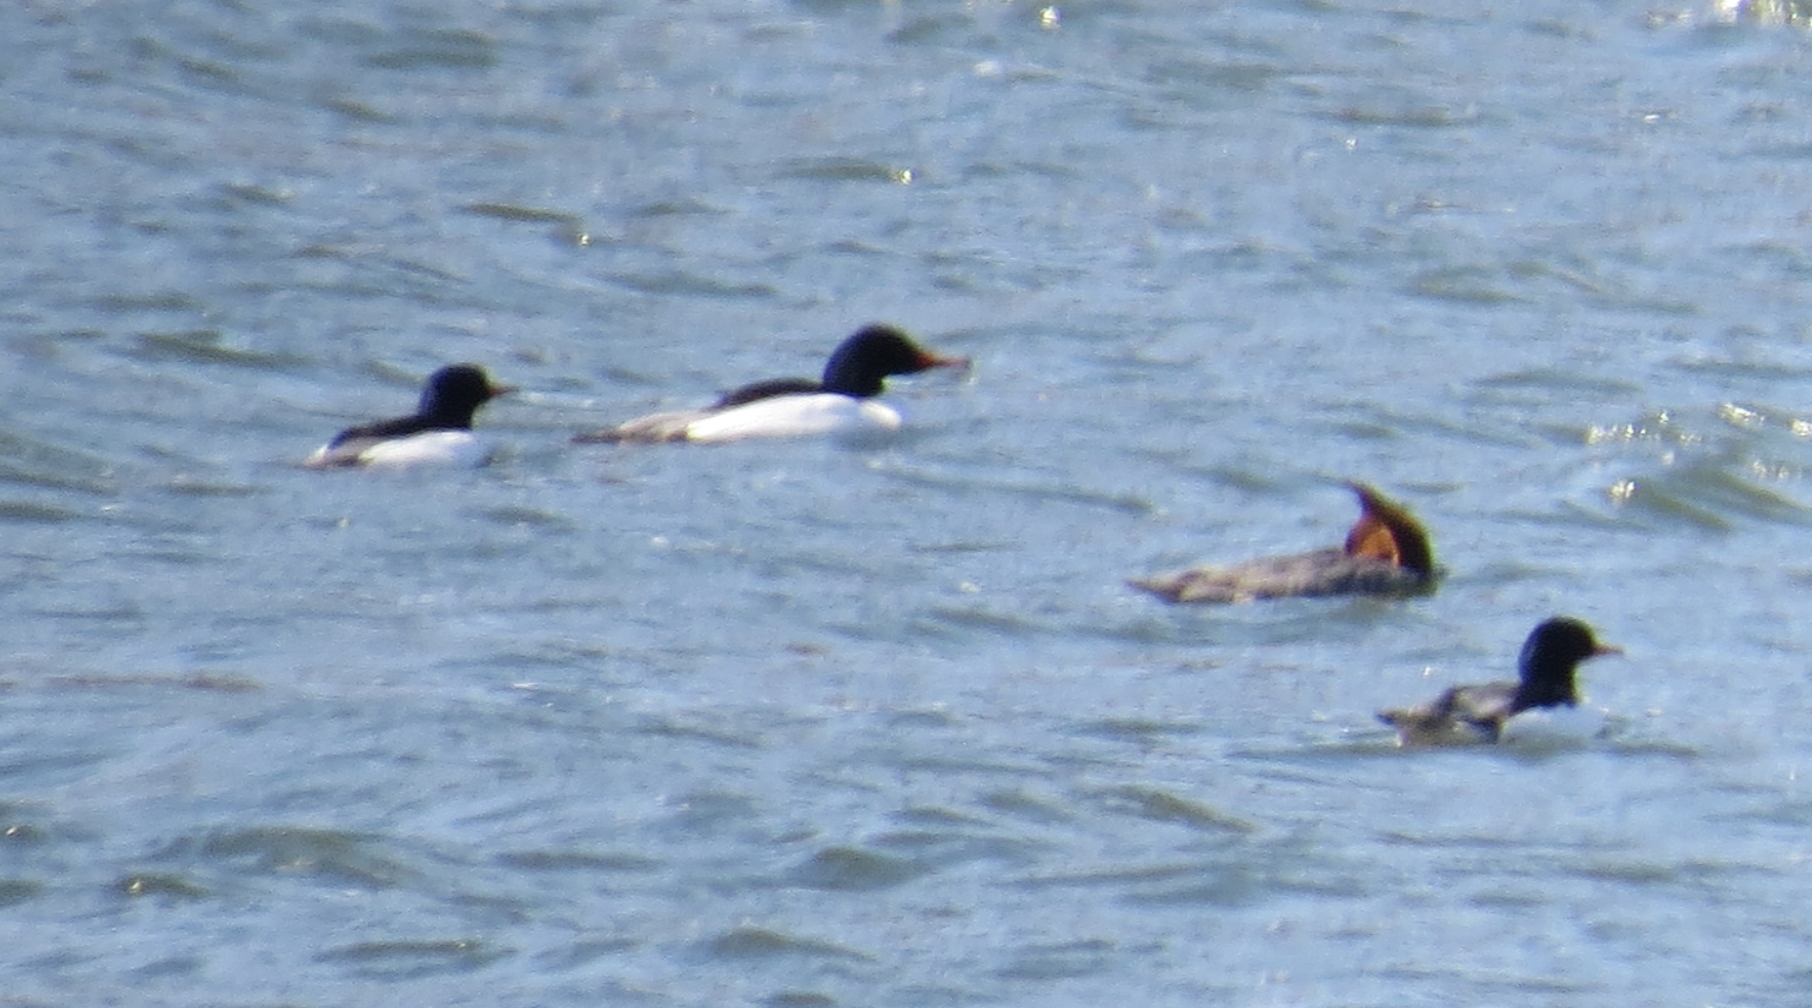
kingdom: Animalia
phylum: Chordata
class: Aves
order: Anseriformes
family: Anatidae
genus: Mergus
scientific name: Mergus merganser
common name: Common merganser
